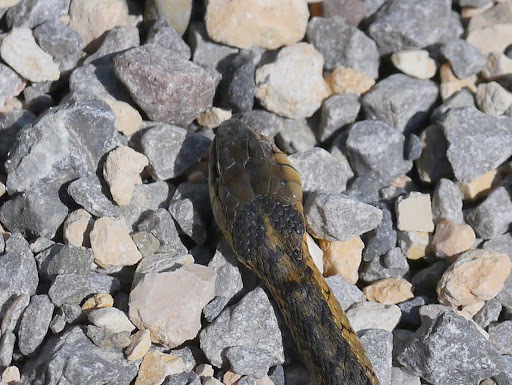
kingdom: Animalia
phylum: Chordata
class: Squamata
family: Colubridae
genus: Thamnophis
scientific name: Thamnophis sirtalis
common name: Common garter snake
